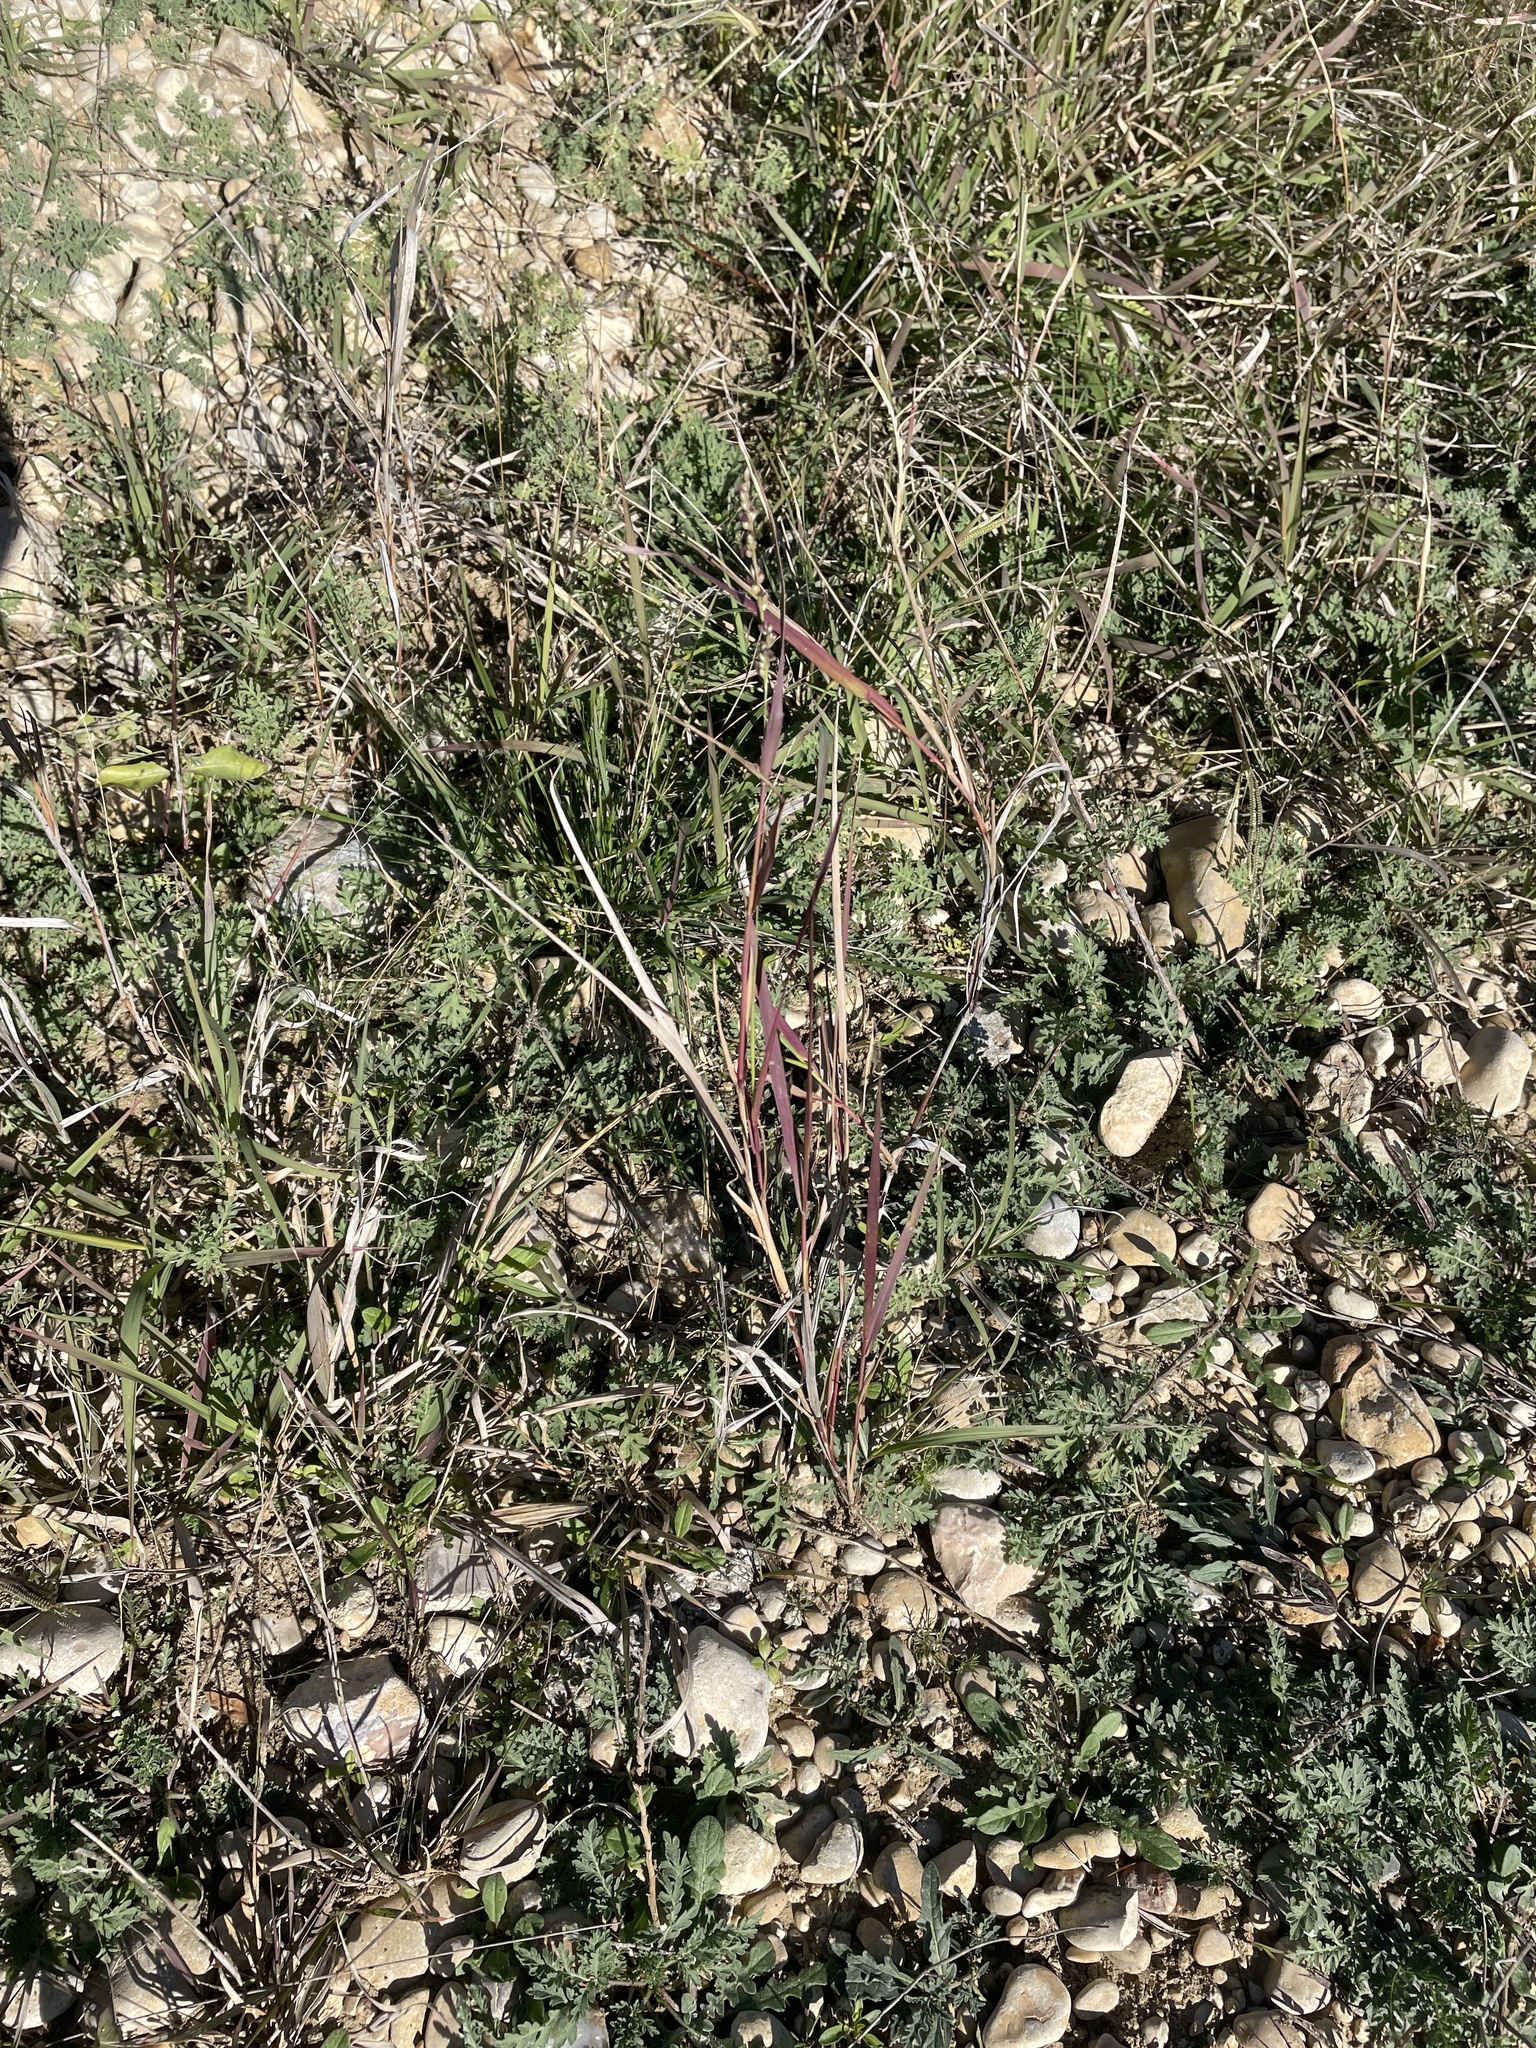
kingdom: Plantae
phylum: Tracheophyta
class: Liliopsida
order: Poales
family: Poaceae
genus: Hopia
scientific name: Hopia obtusa
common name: Vine-mesquite
